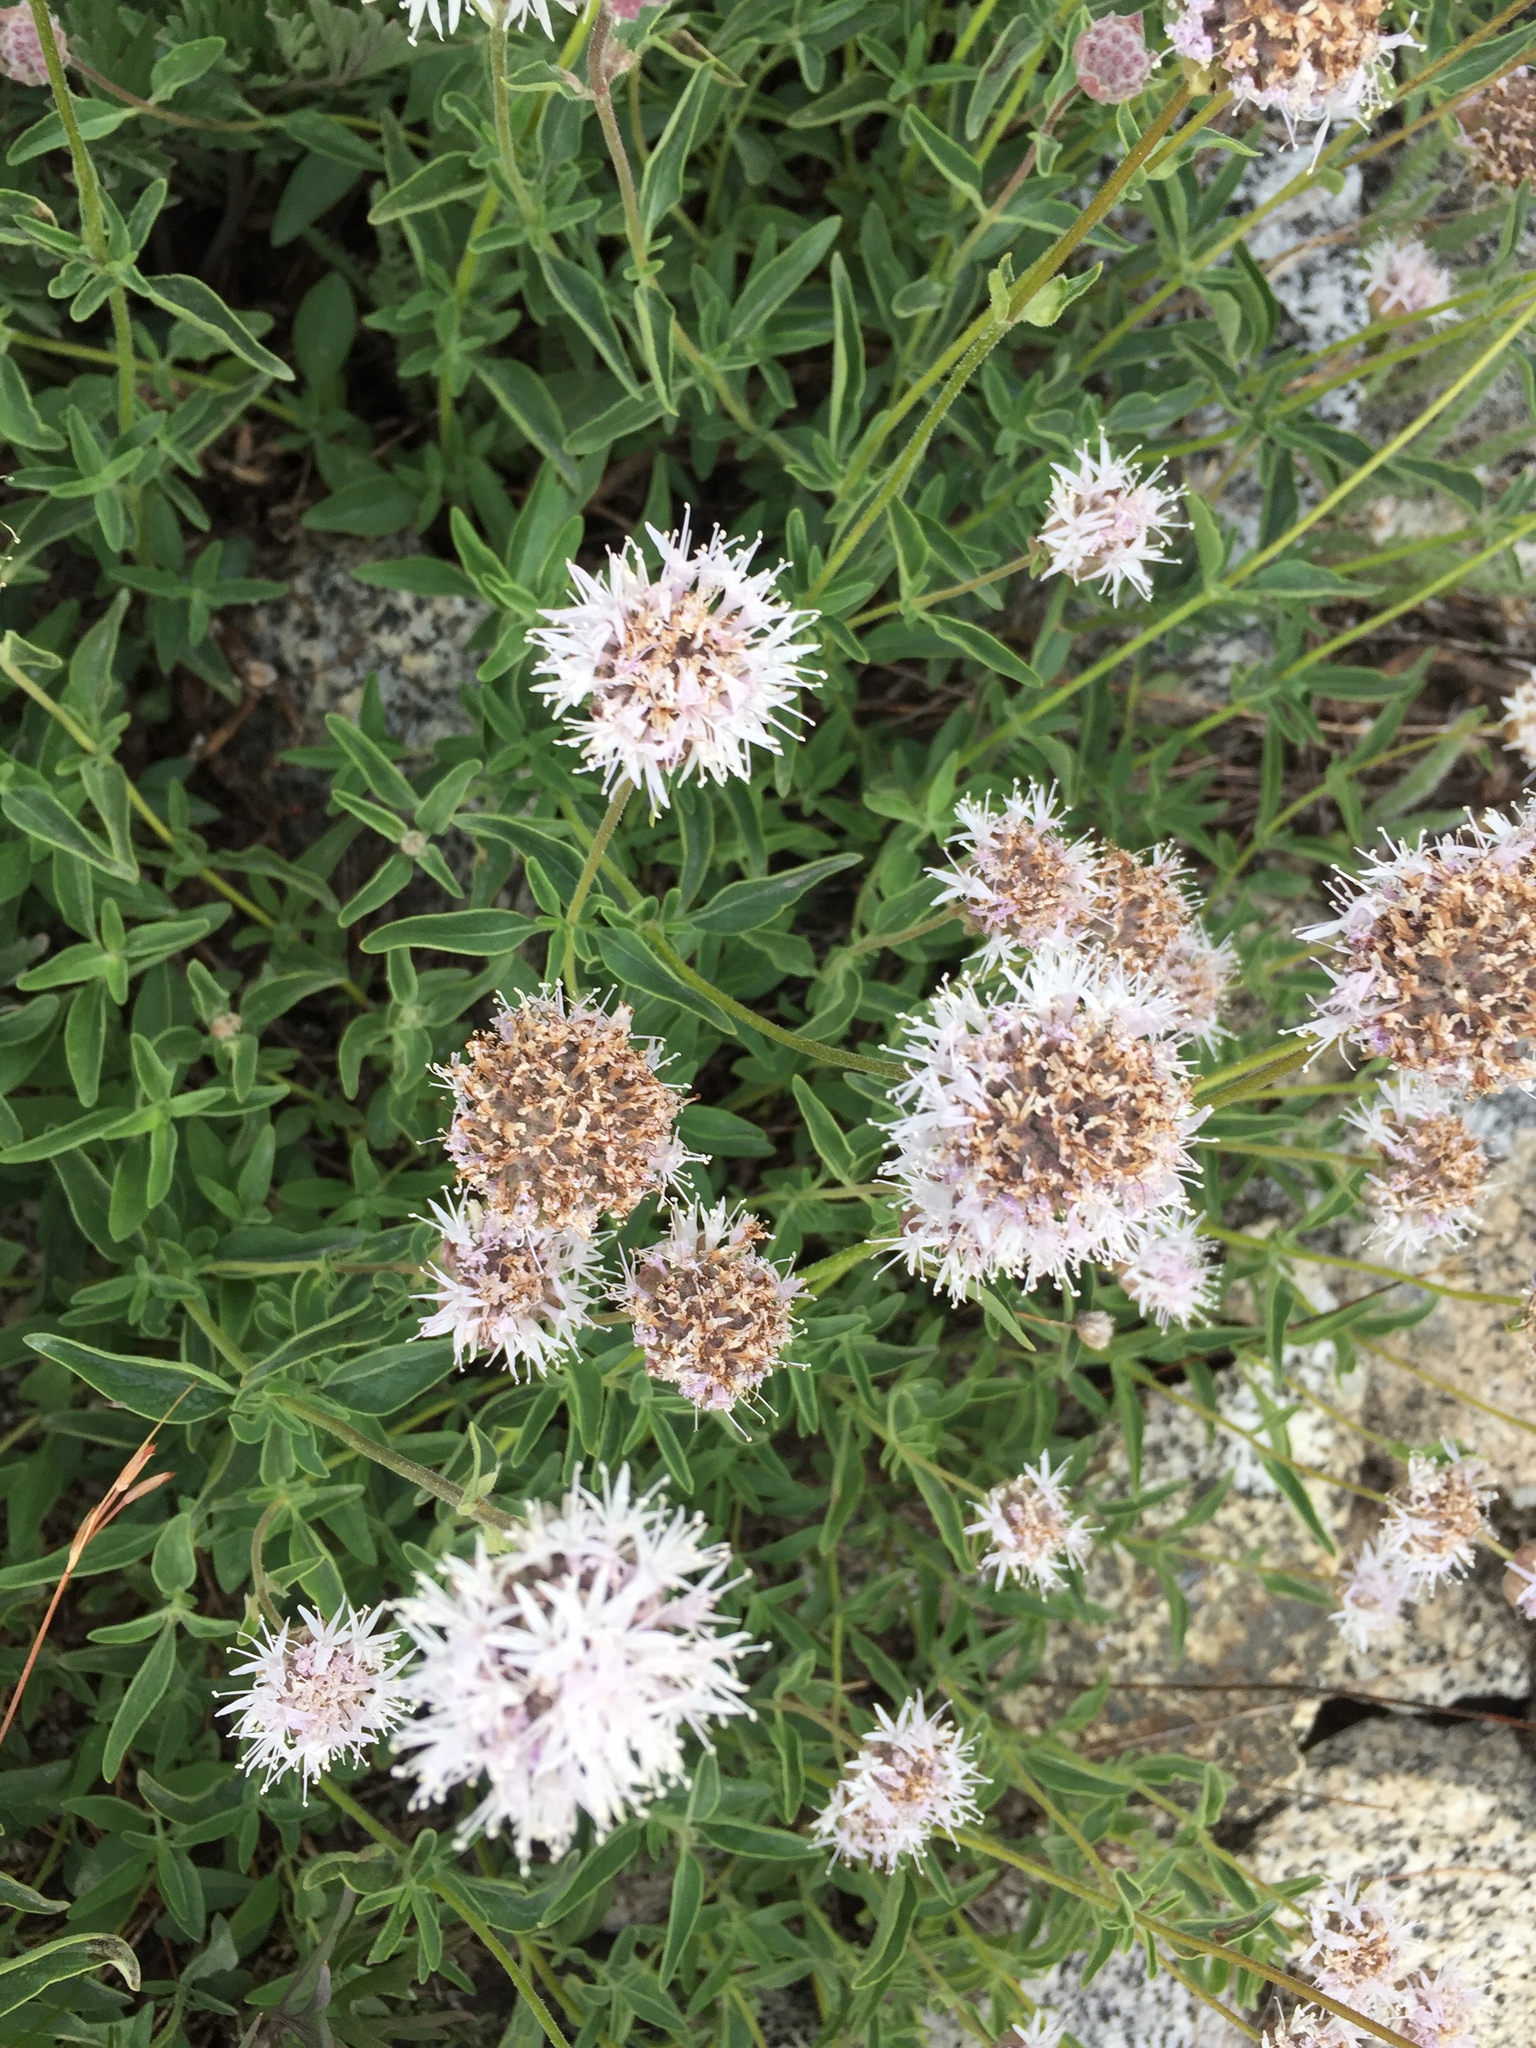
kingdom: Plantae
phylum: Tracheophyta
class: Magnoliopsida
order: Lamiales
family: Lamiaceae
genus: Monardella
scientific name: Monardella odoratissima
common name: Pacific monardella
